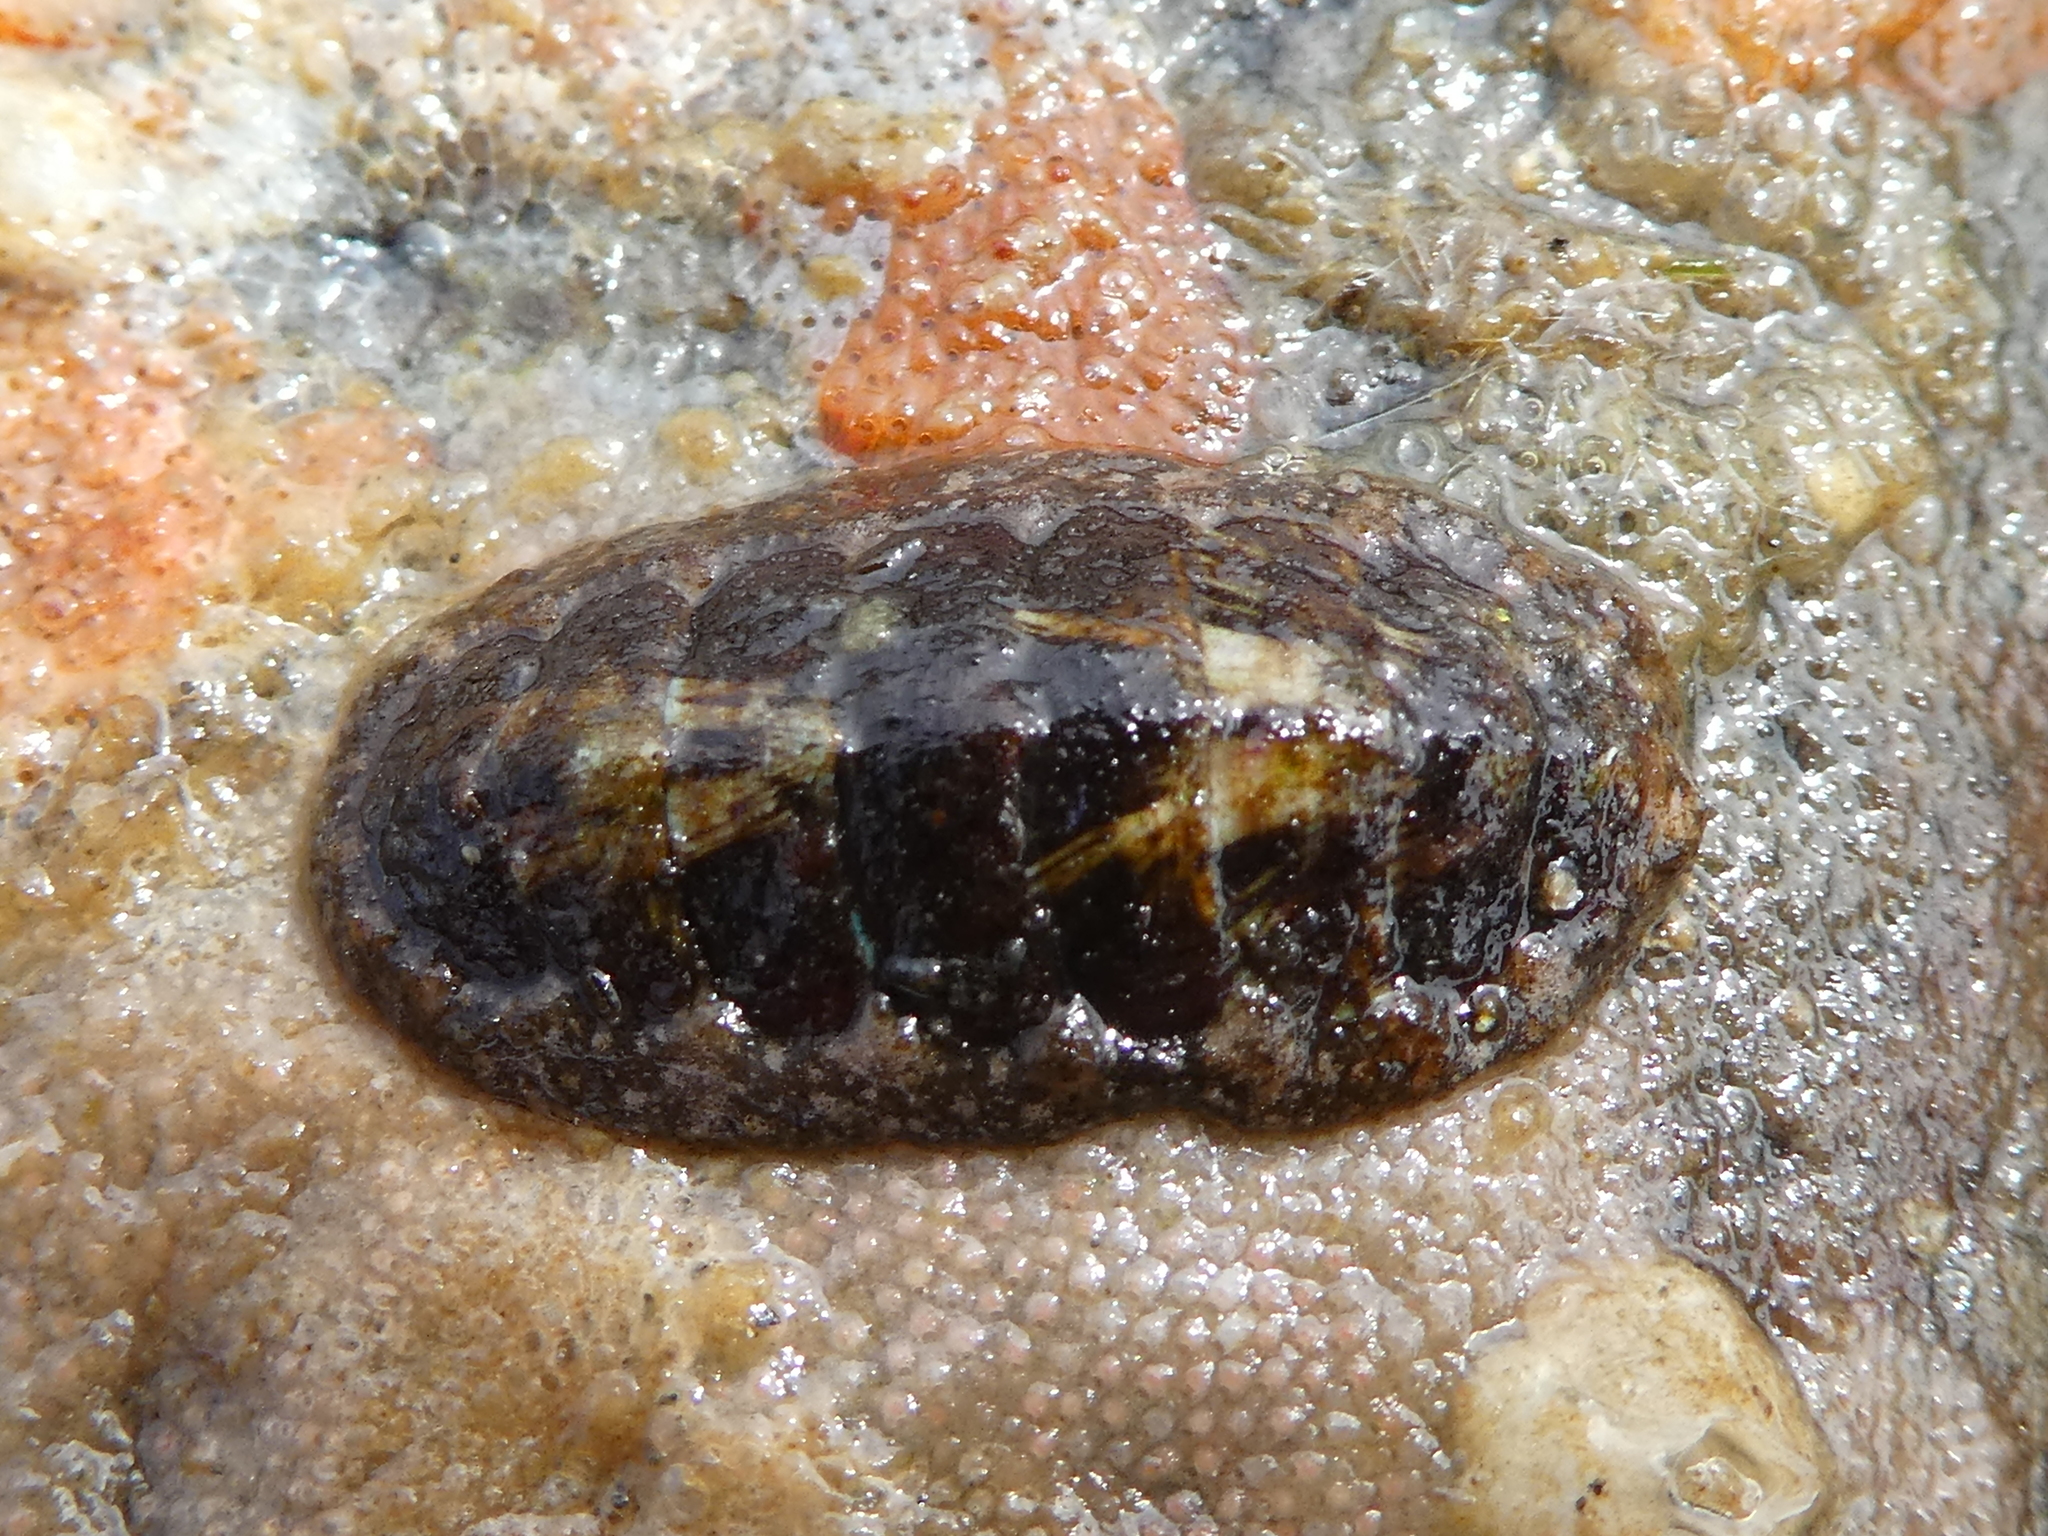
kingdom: Animalia
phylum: Mollusca
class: Polyplacophora
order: Chitonida
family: Tonicellidae
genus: Cyanoplax
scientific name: Cyanoplax dentiens
